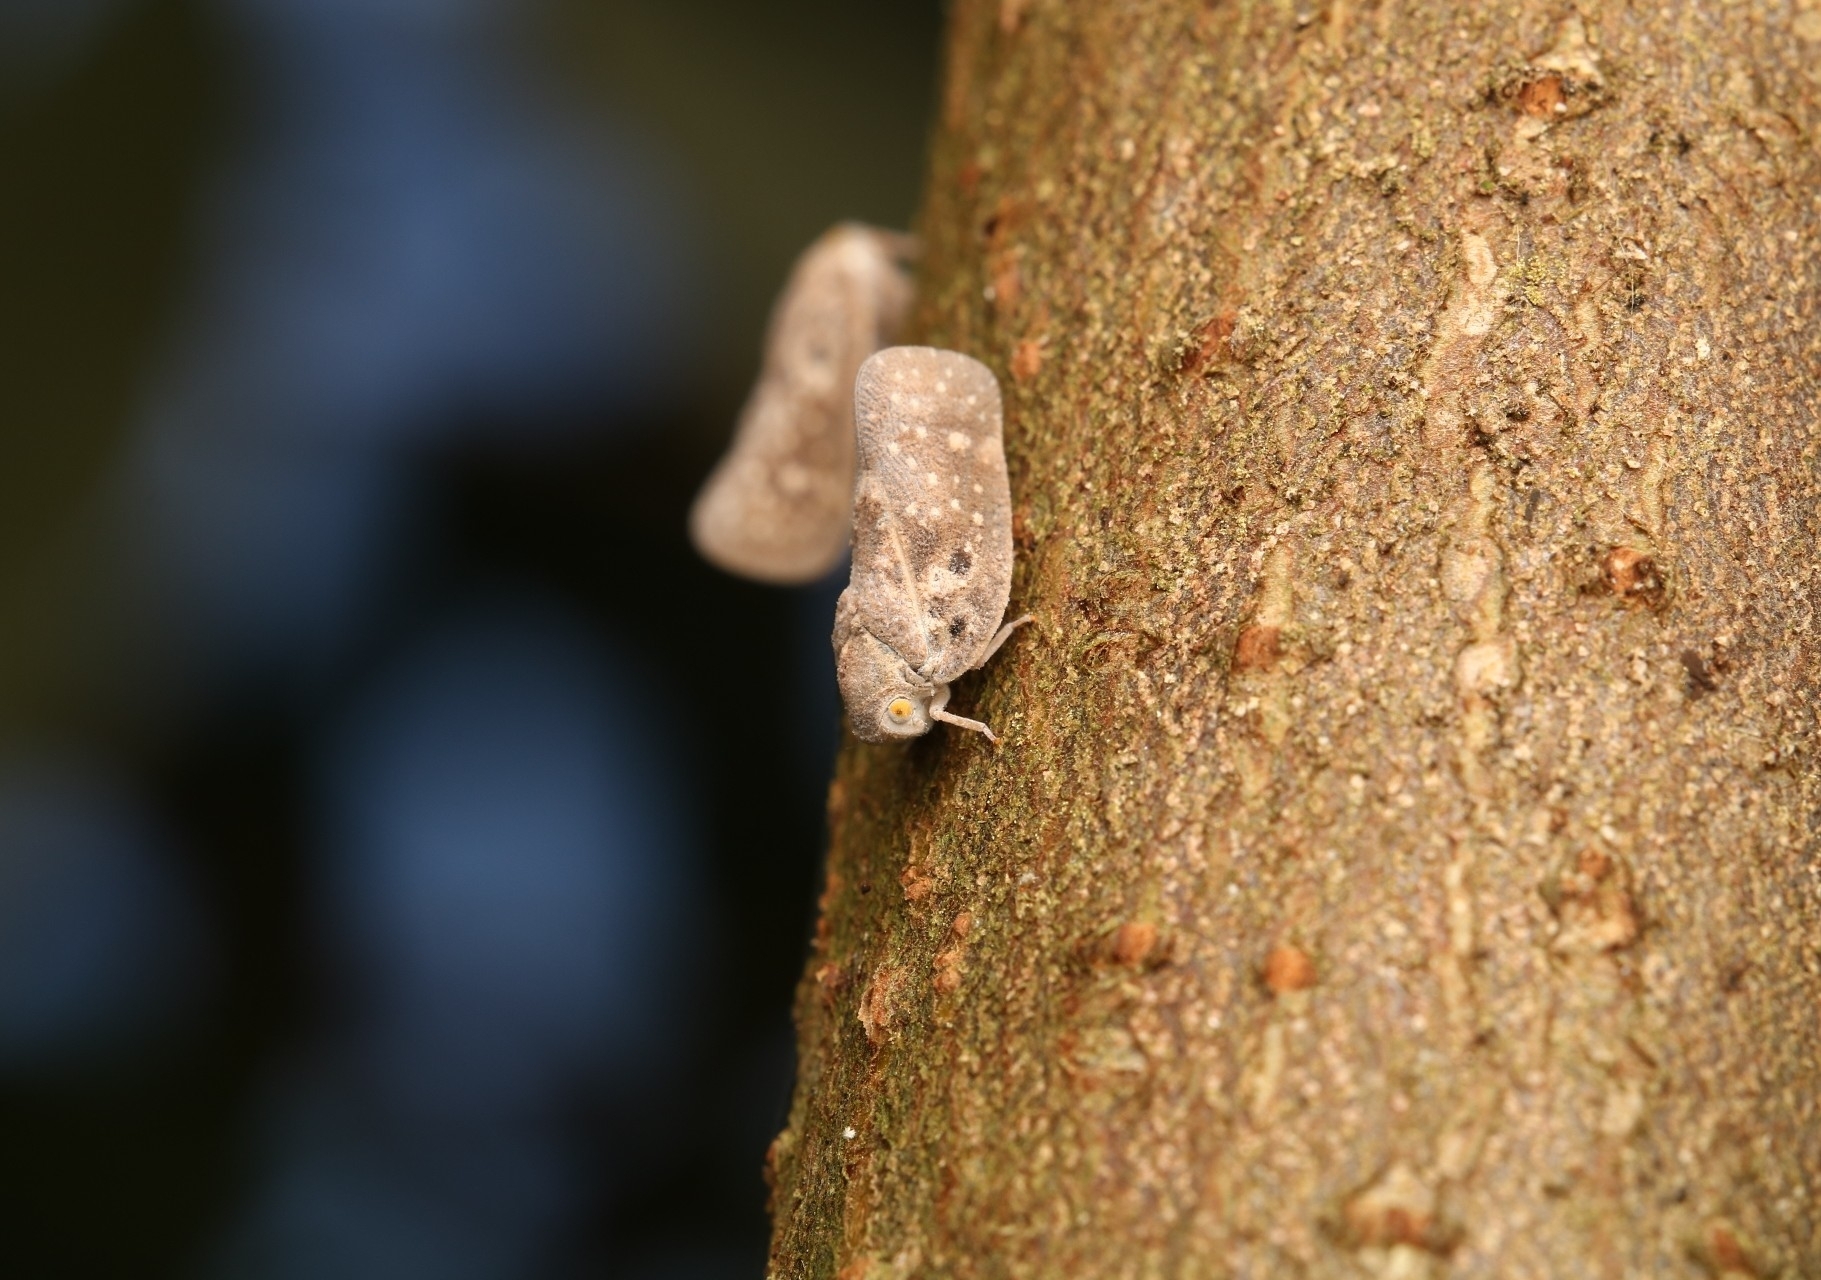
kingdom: Animalia
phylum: Arthropoda
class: Insecta
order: Hemiptera
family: Flatidae
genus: Metcalfa
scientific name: Metcalfa pruinosa
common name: Citrus flatid planthopper
